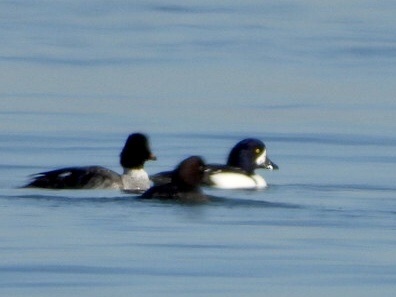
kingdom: Animalia
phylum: Chordata
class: Aves
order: Anseriformes
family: Anatidae
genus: Bucephala
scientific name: Bucephala islandica
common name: Barrow's goldeneye
